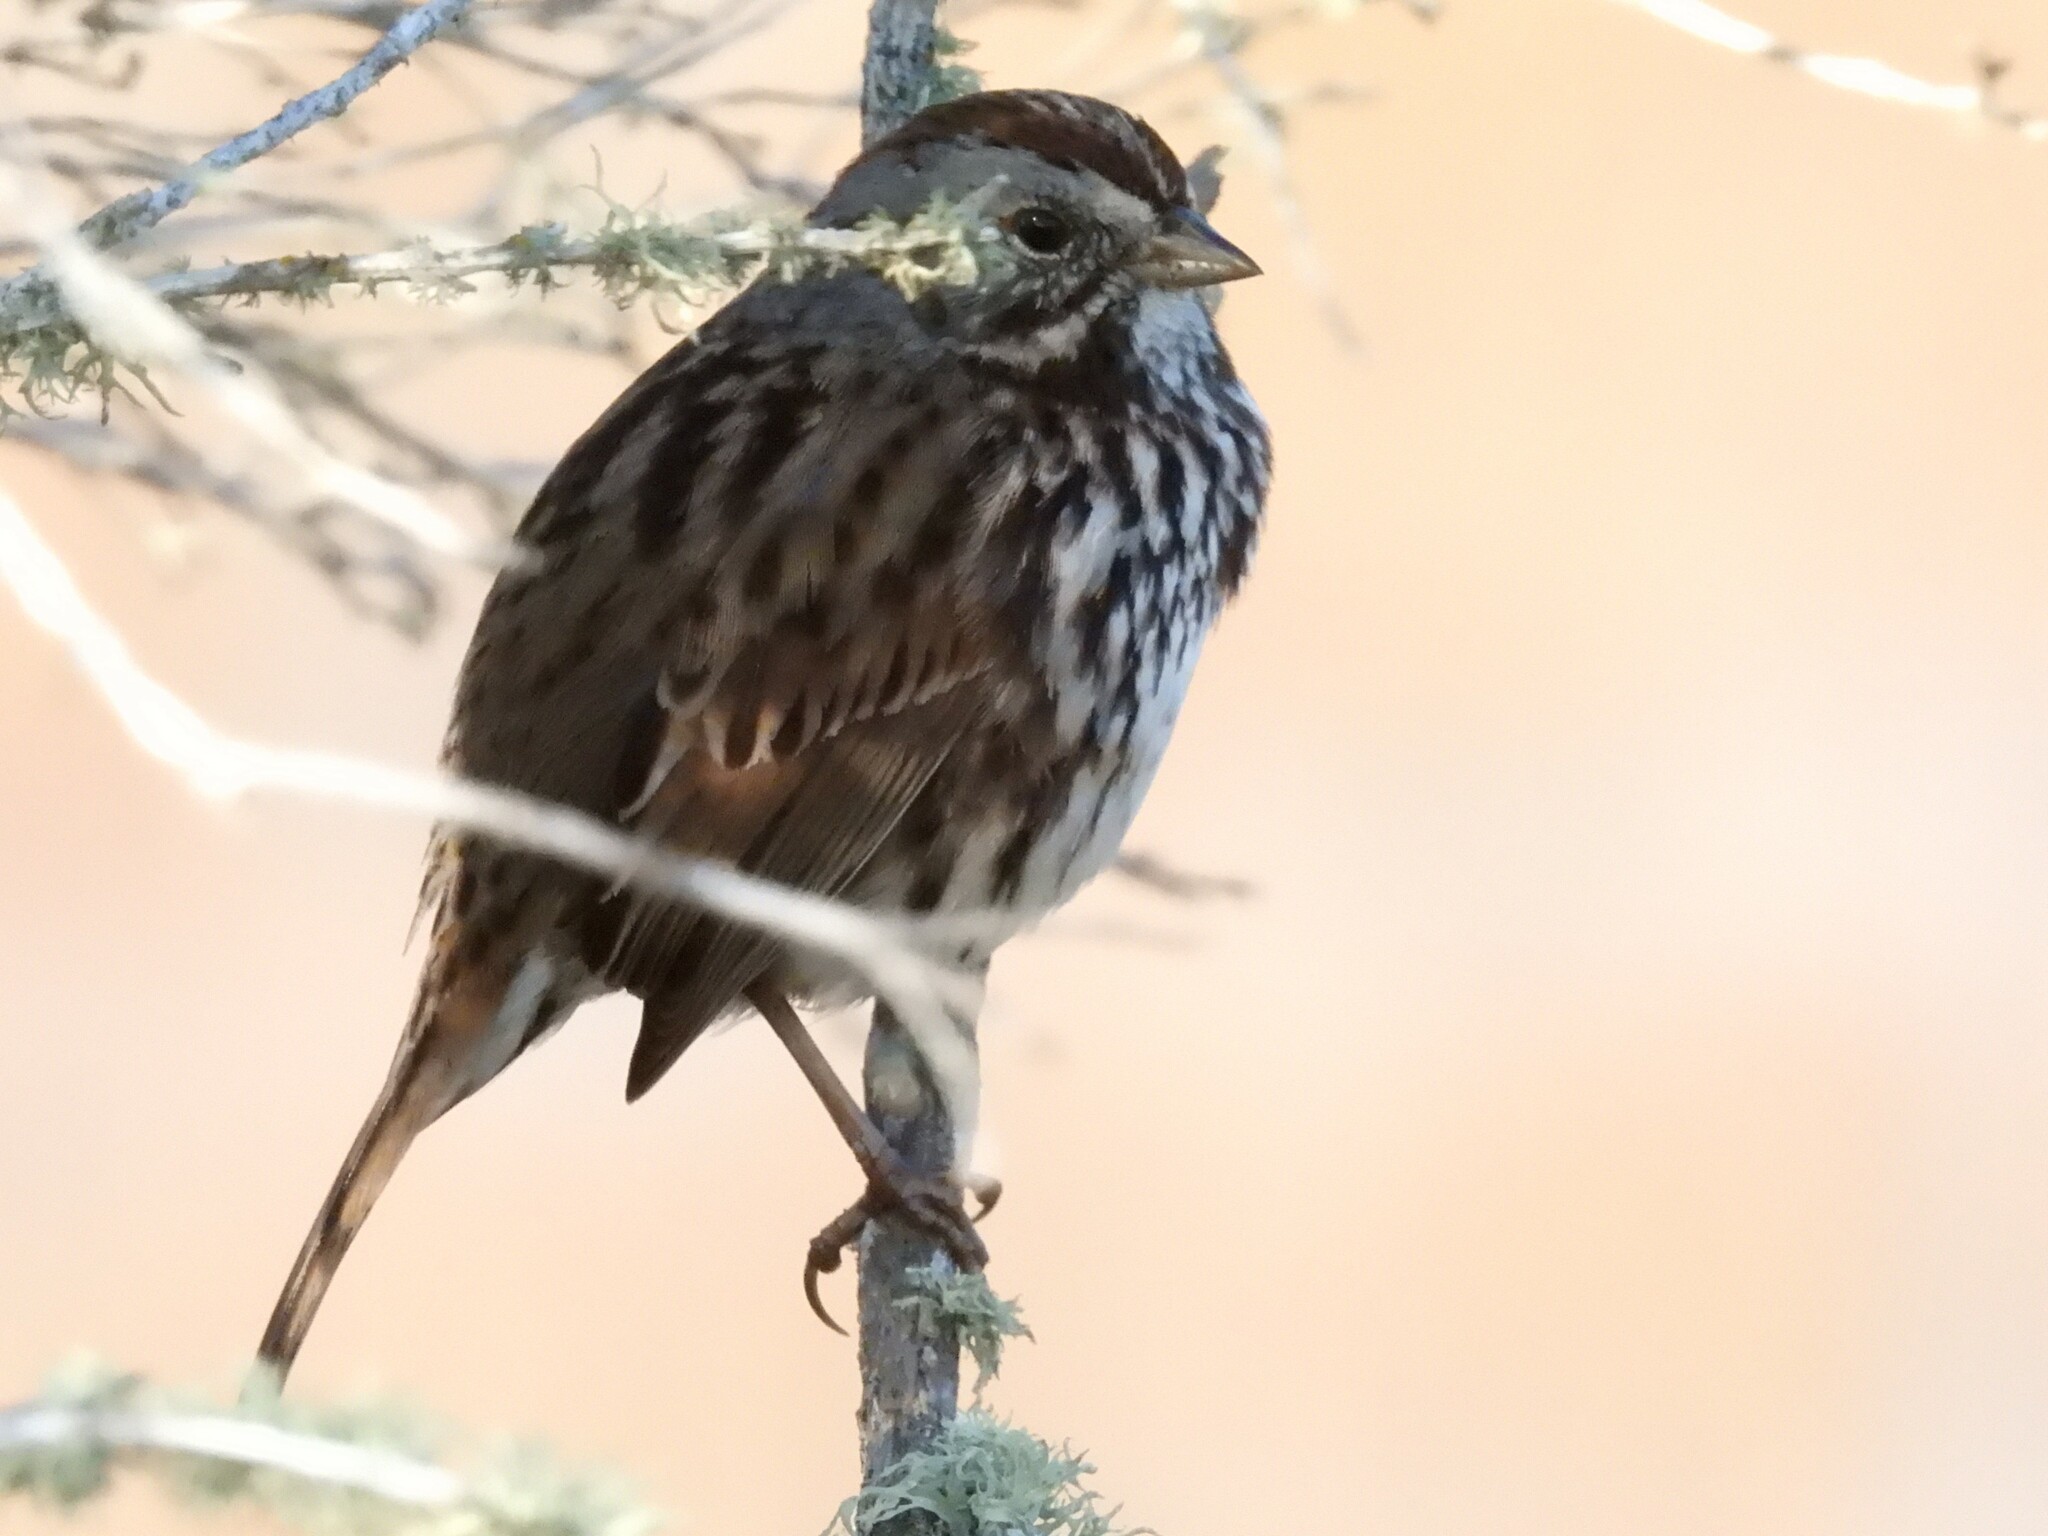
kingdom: Animalia
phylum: Chordata
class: Aves
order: Passeriformes
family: Passerellidae
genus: Melospiza
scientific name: Melospiza melodia
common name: Song sparrow
